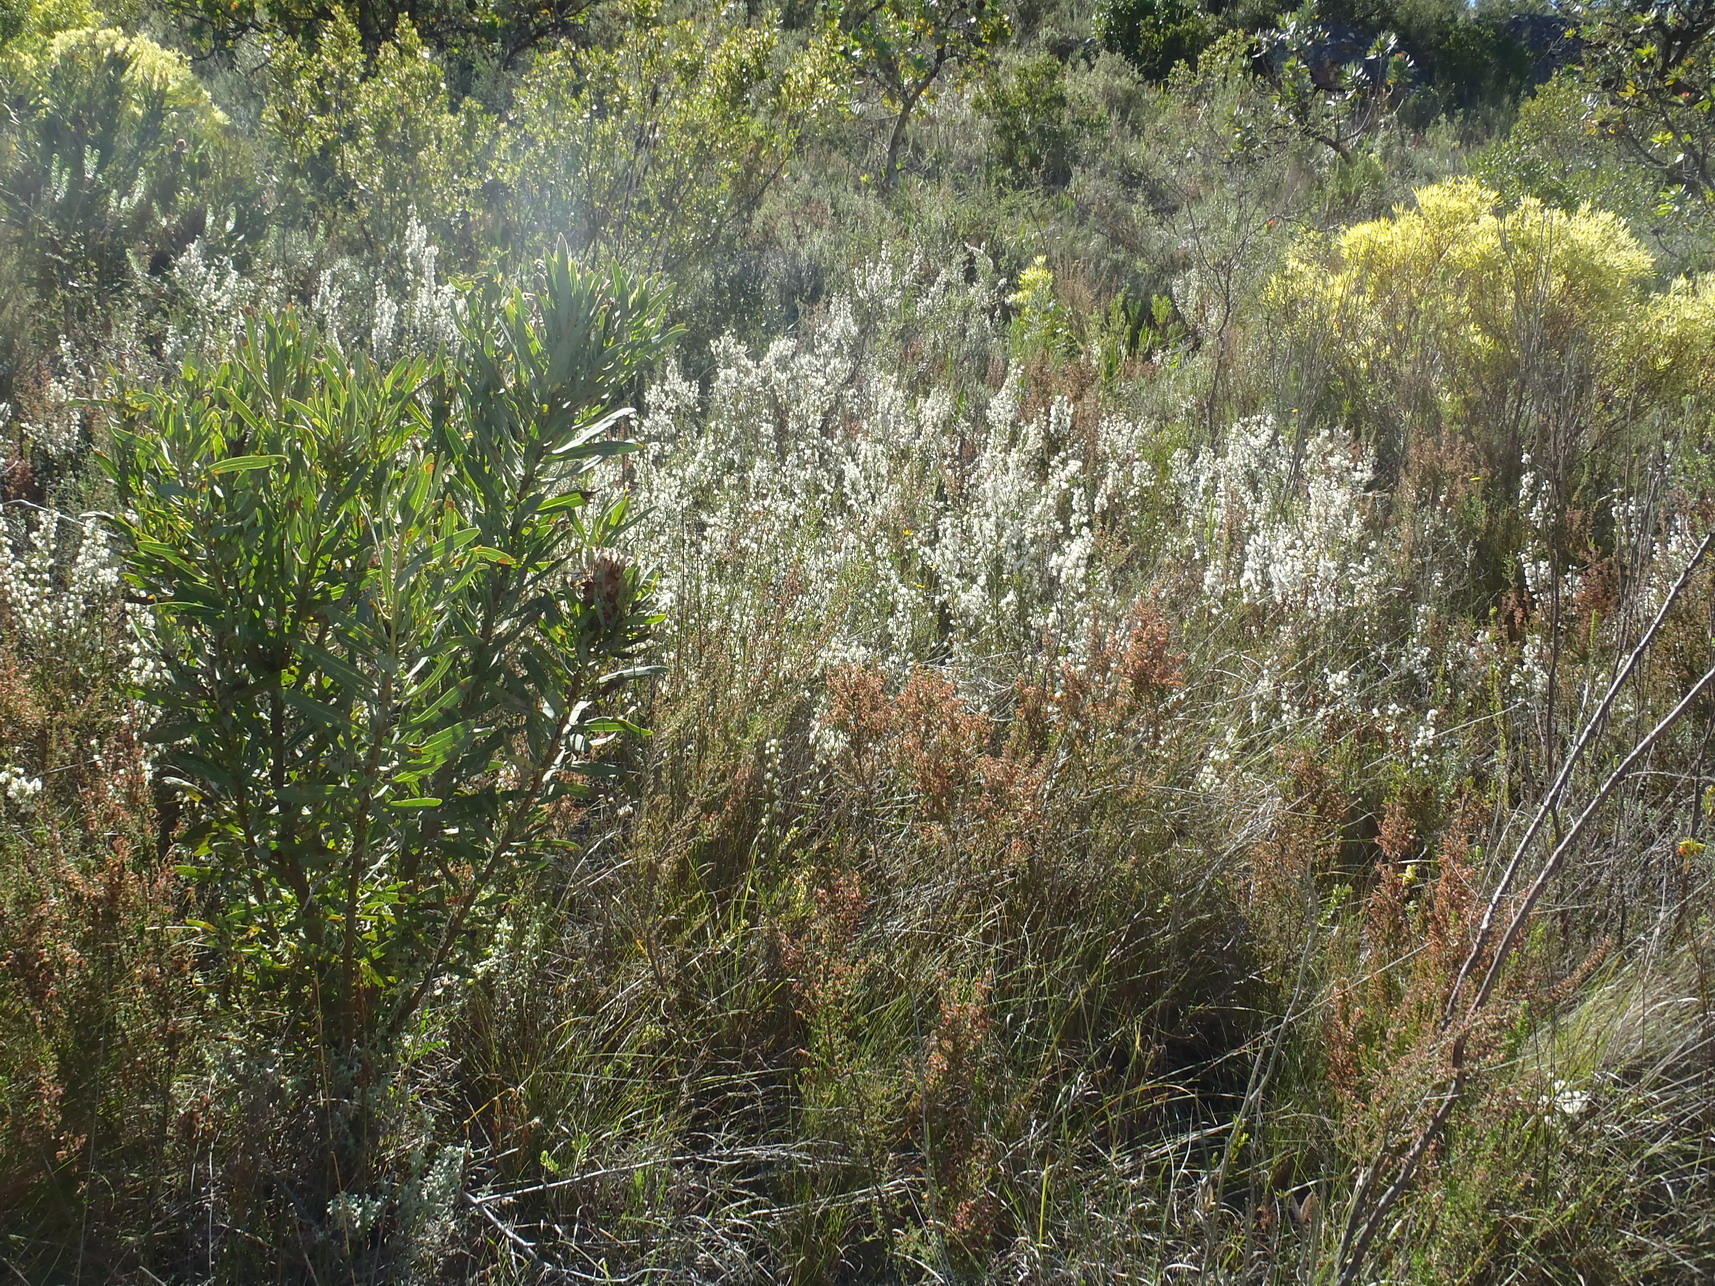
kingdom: Plantae
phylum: Tracheophyta
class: Magnoliopsida
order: Ericales
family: Ericaceae
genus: Erica
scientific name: Erica tragulifera
